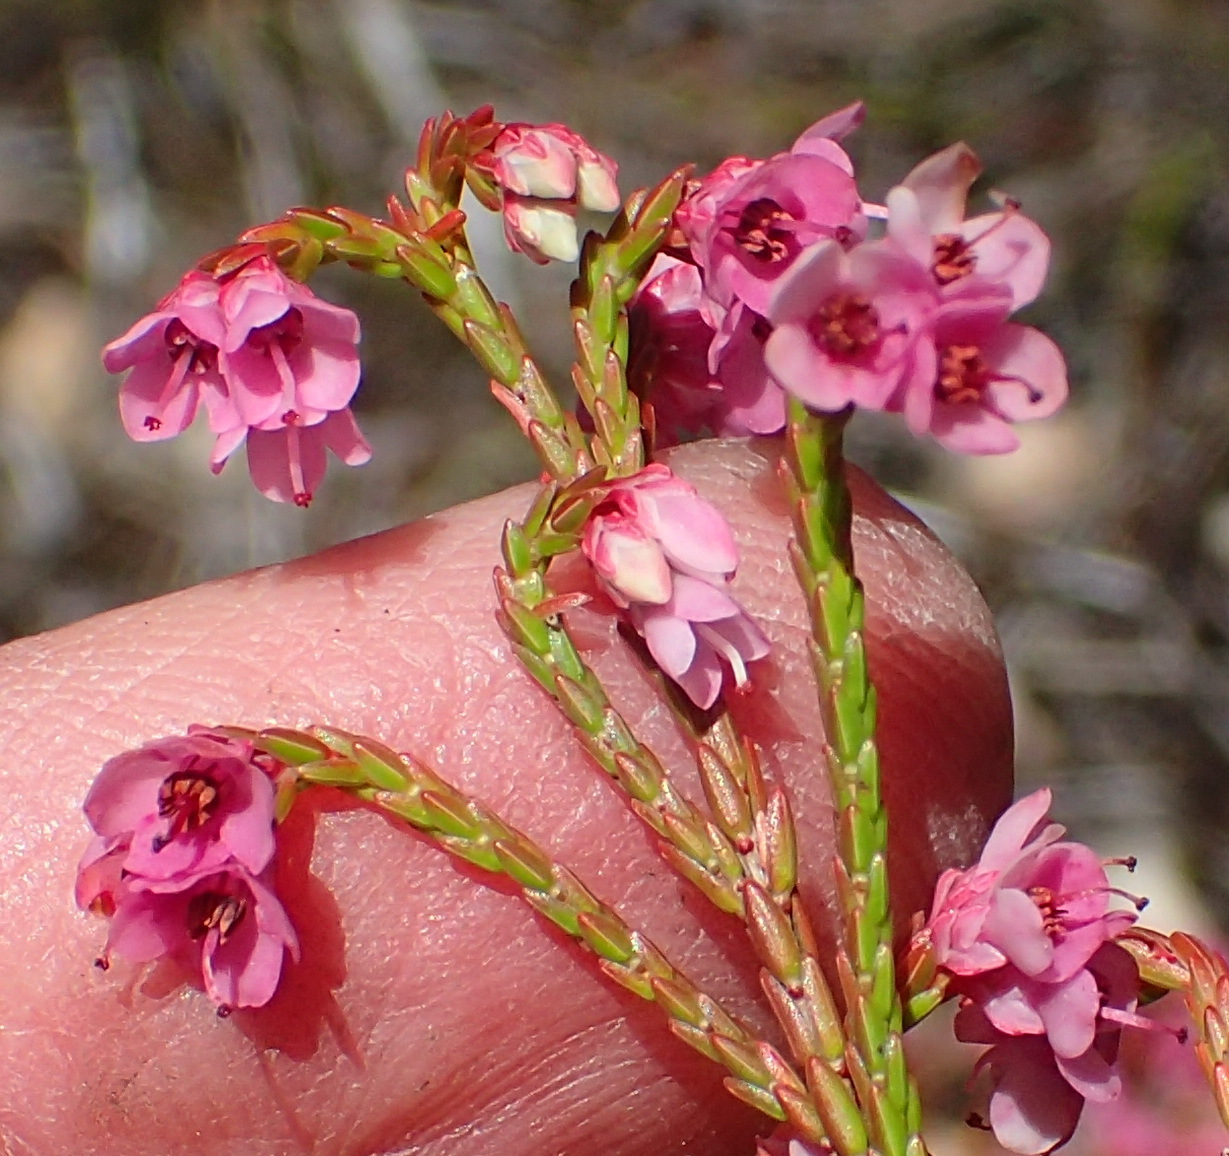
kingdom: Plantae
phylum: Tracheophyta
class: Magnoliopsida
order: Ericales
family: Ericaceae
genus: Erica
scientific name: Erica humifusa
